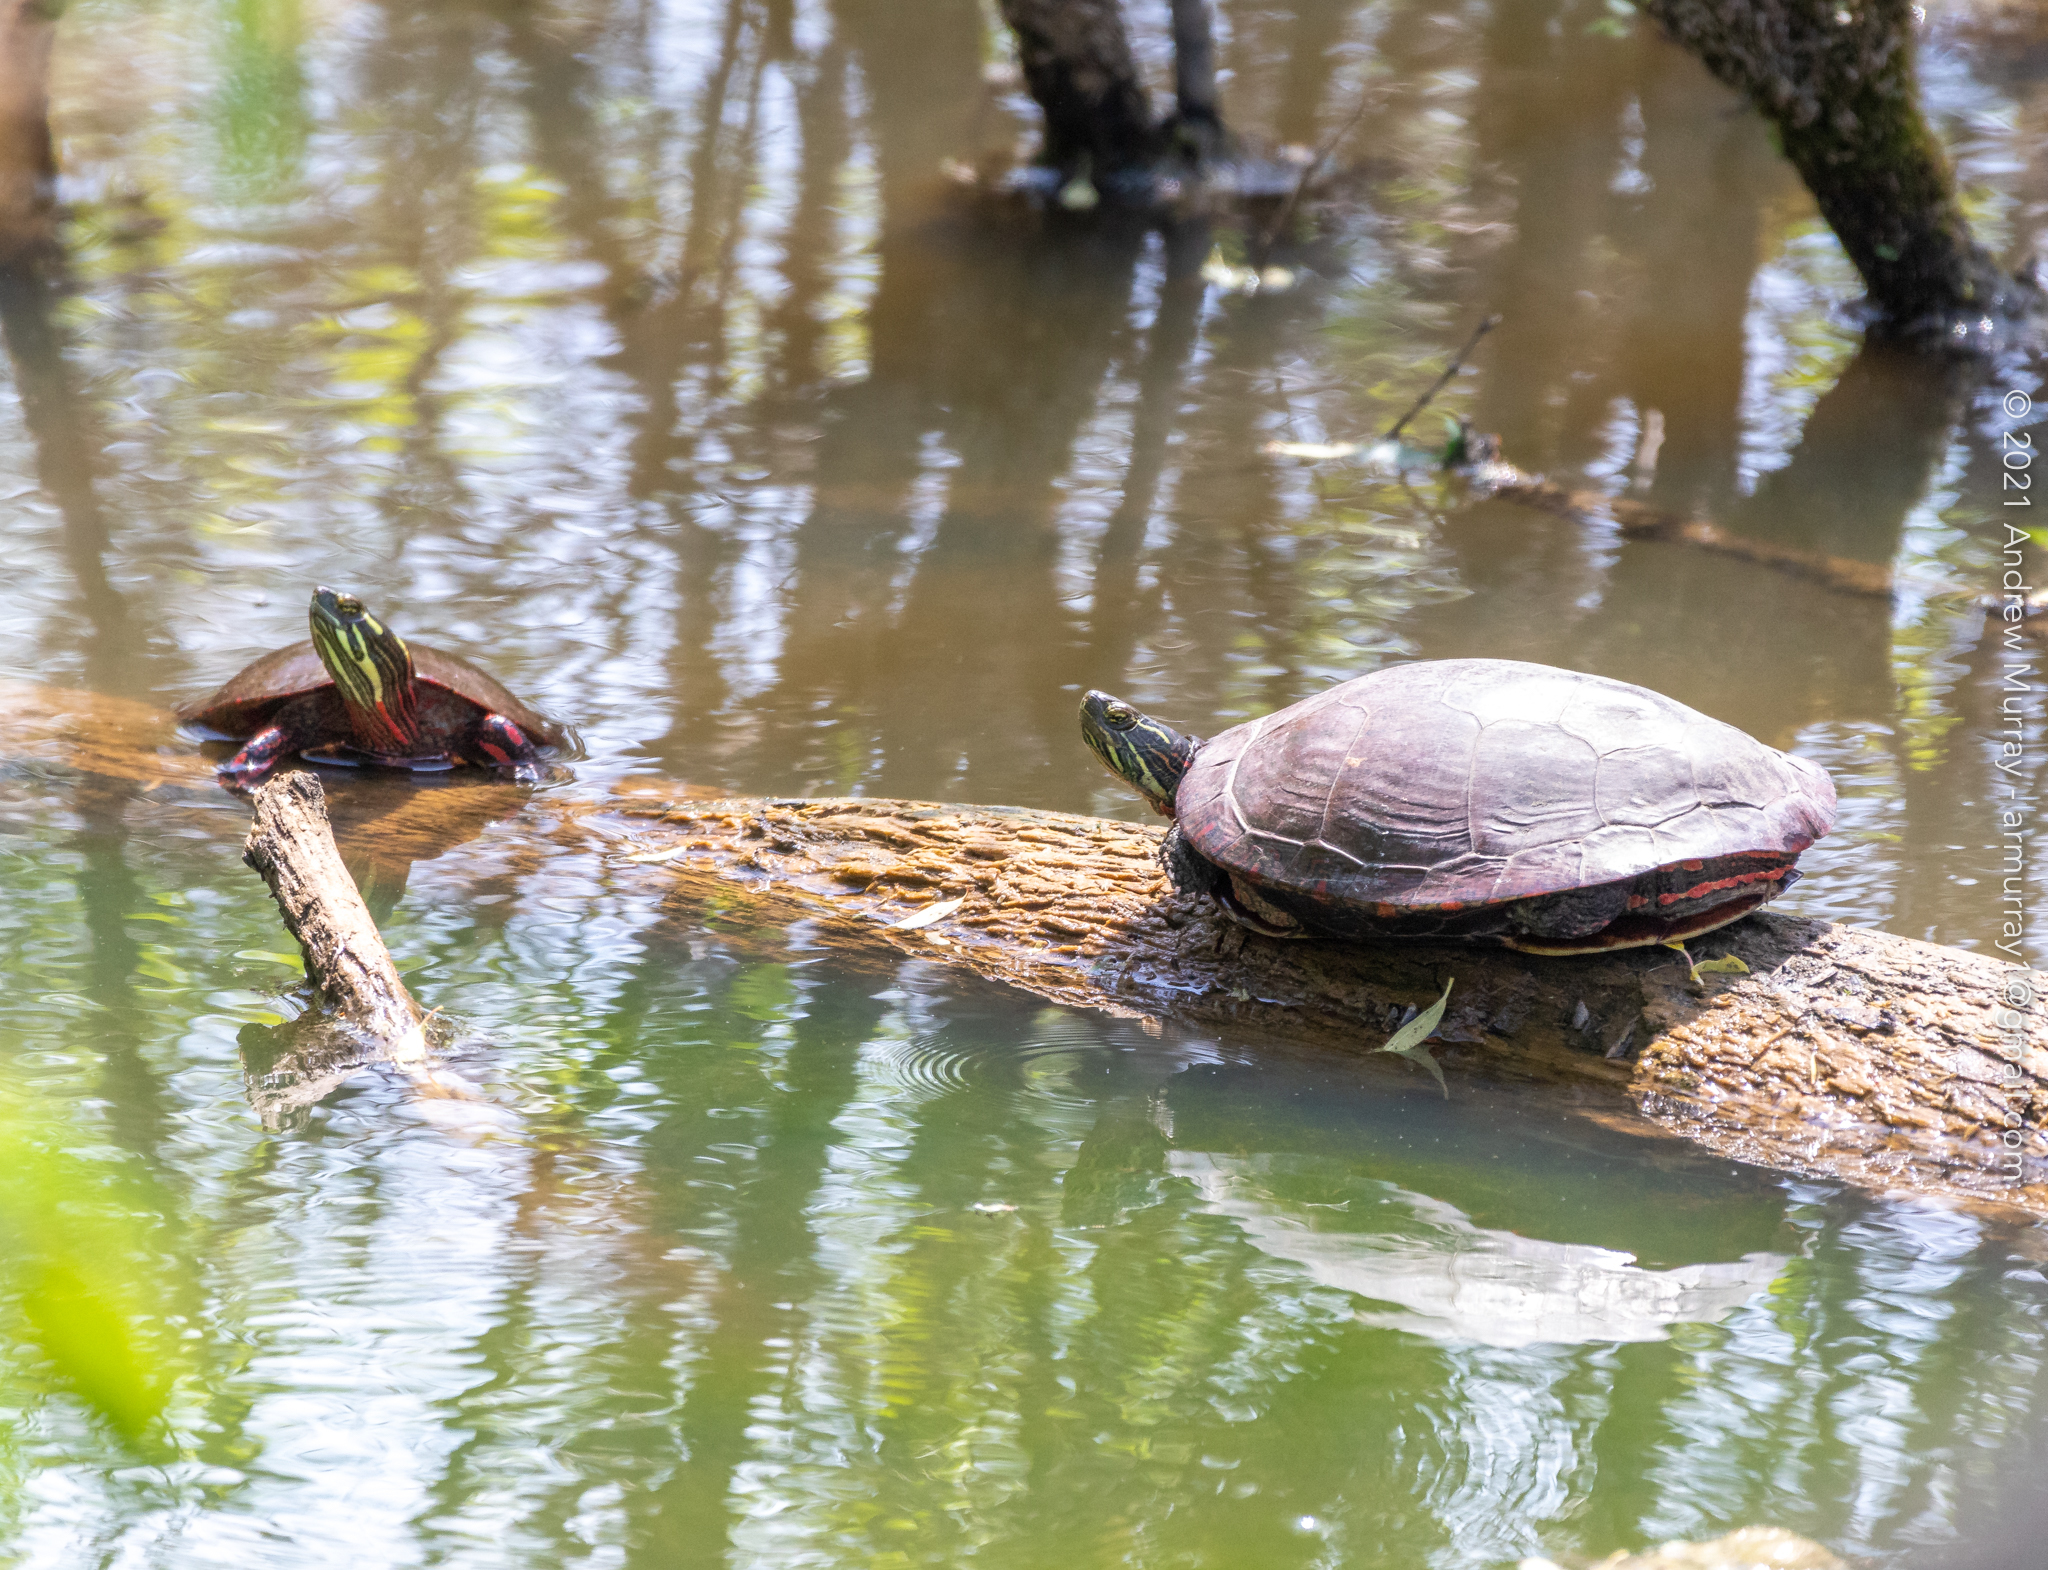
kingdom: Animalia
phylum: Chordata
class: Testudines
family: Emydidae
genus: Chrysemys
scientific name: Chrysemys picta
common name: Painted turtle
